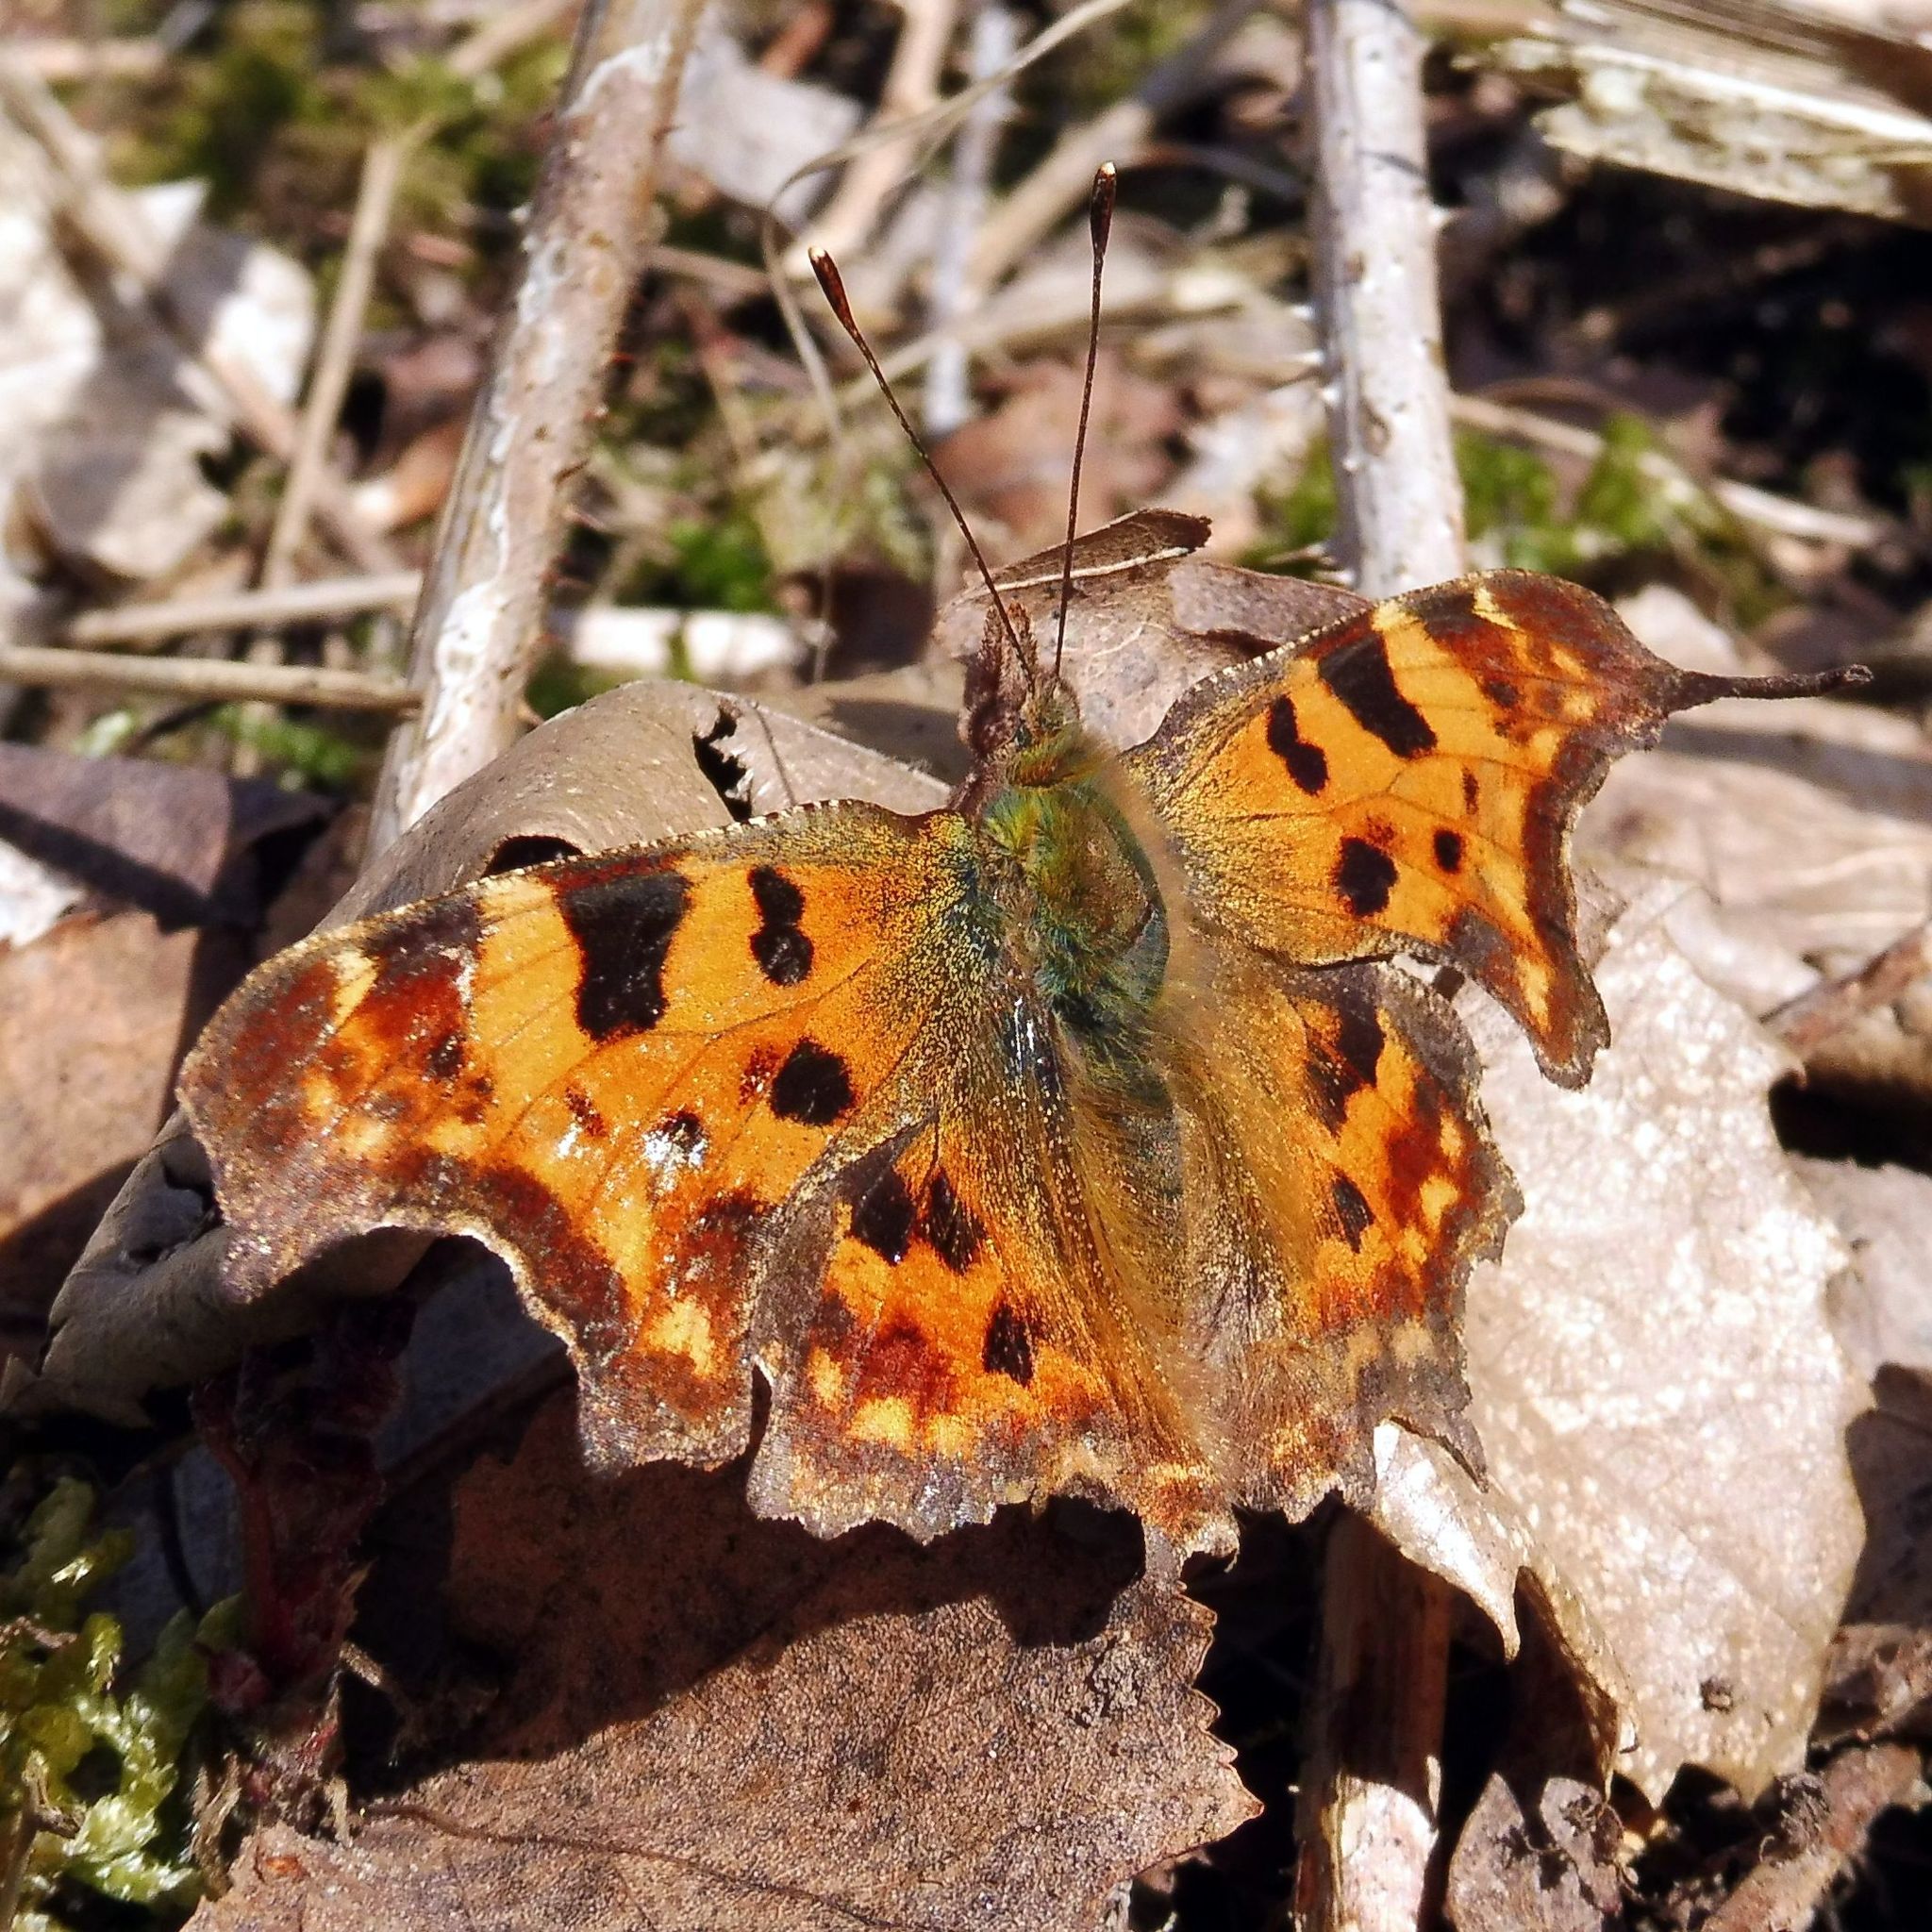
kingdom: Animalia
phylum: Arthropoda
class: Insecta
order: Lepidoptera
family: Nymphalidae
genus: Polygonia
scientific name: Polygonia c-album
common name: Comma
